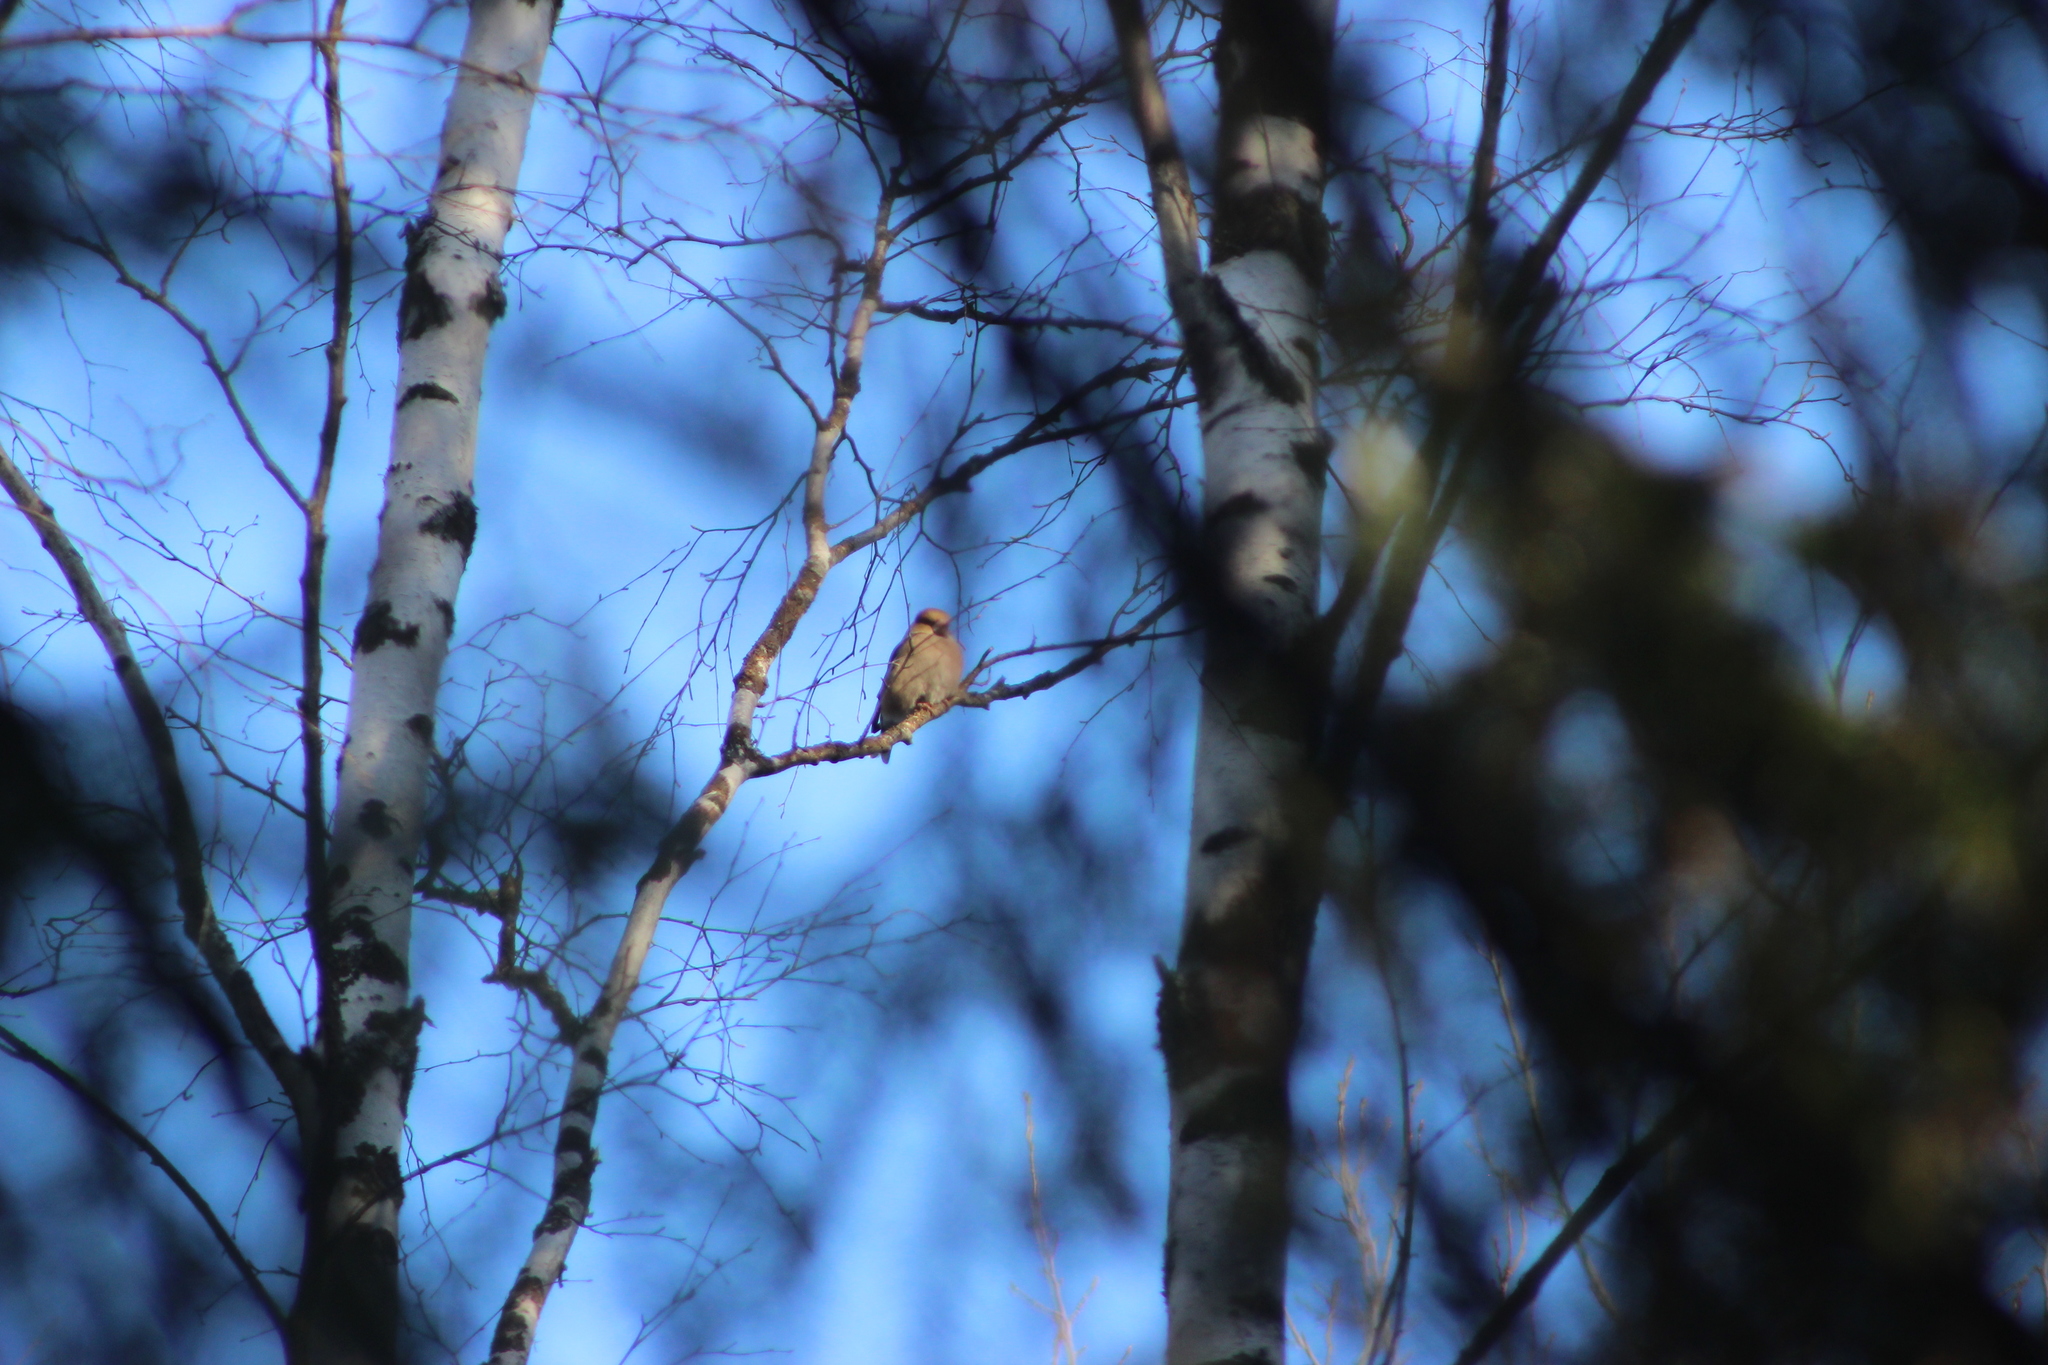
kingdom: Animalia
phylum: Chordata
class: Aves
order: Passeriformes
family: Fringillidae
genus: Coccothraustes
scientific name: Coccothraustes coccothraustes
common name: Hawfinch
